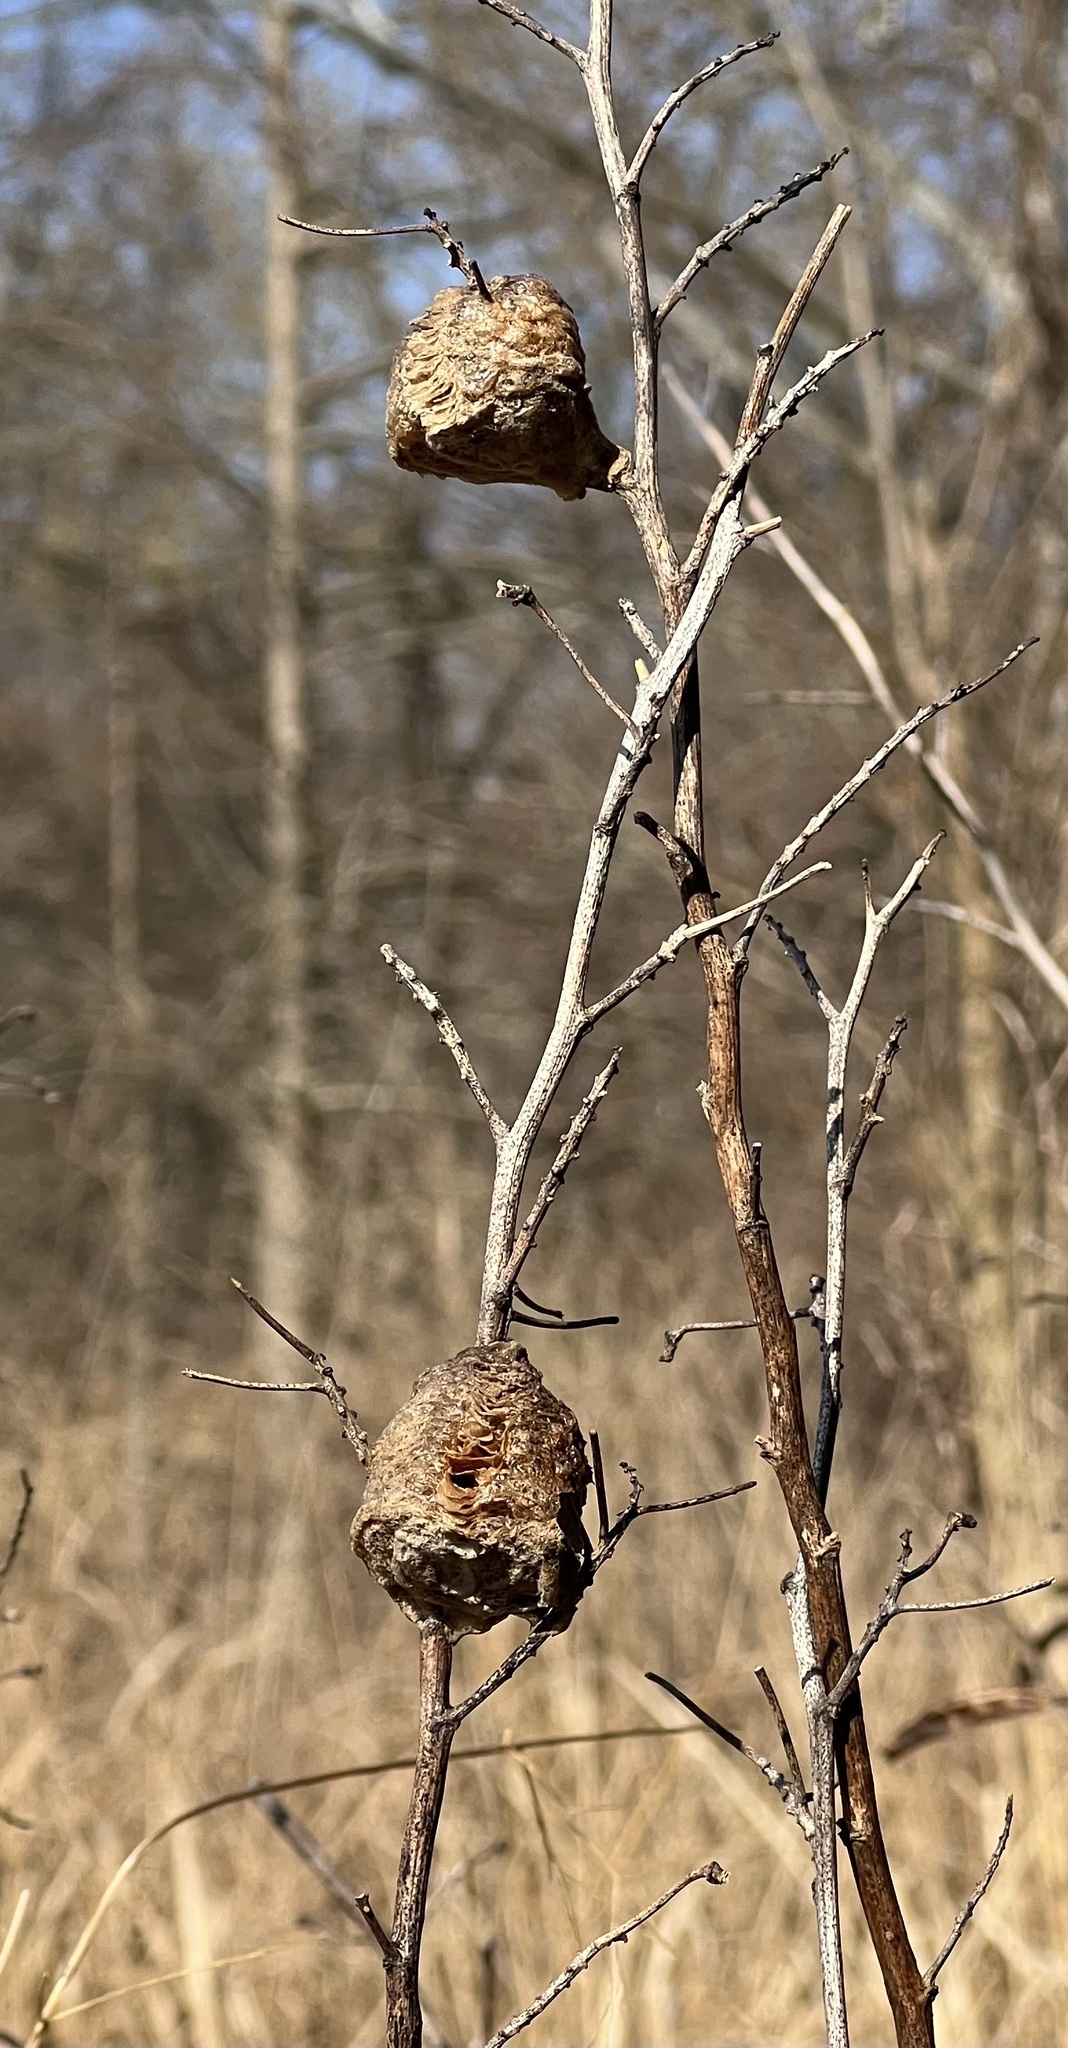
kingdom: Animalia
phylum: Arthropoda
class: Insecta
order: Mantodea
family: Mantidae
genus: Tenodera
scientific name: Tenodera sinensis
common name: Chinese mantis
